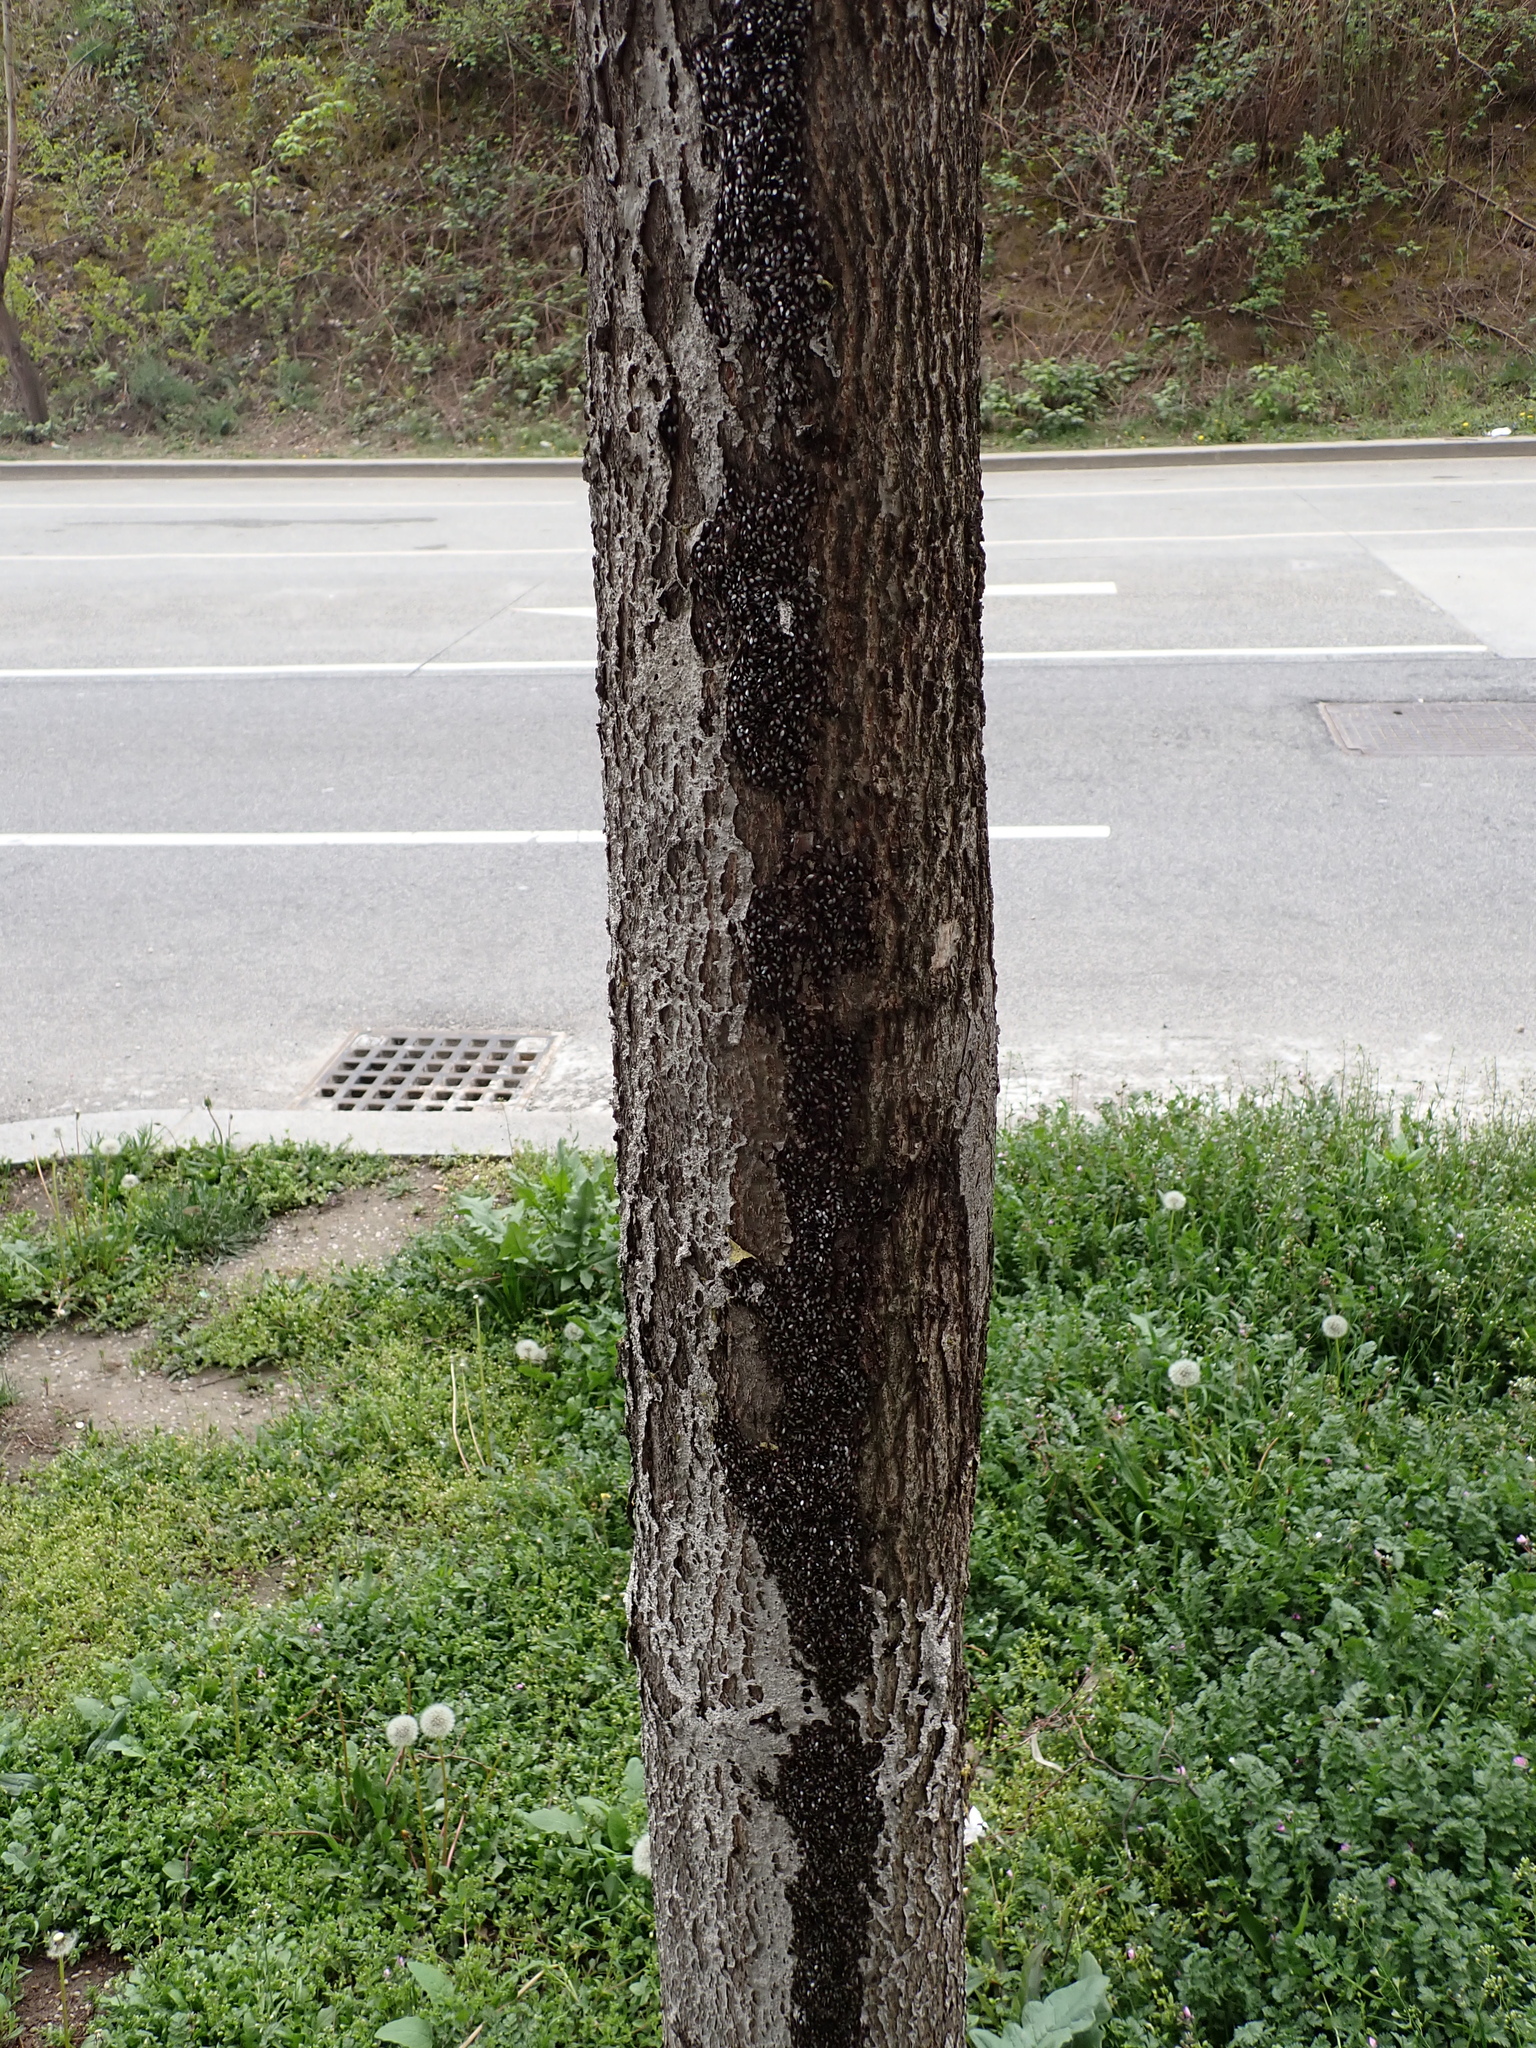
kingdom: Animalia
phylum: Arthropoda
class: Insecta
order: Hemiptera
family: Oxycarenidae
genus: Oxycarenus
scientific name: Oxycarenus lavaterae
